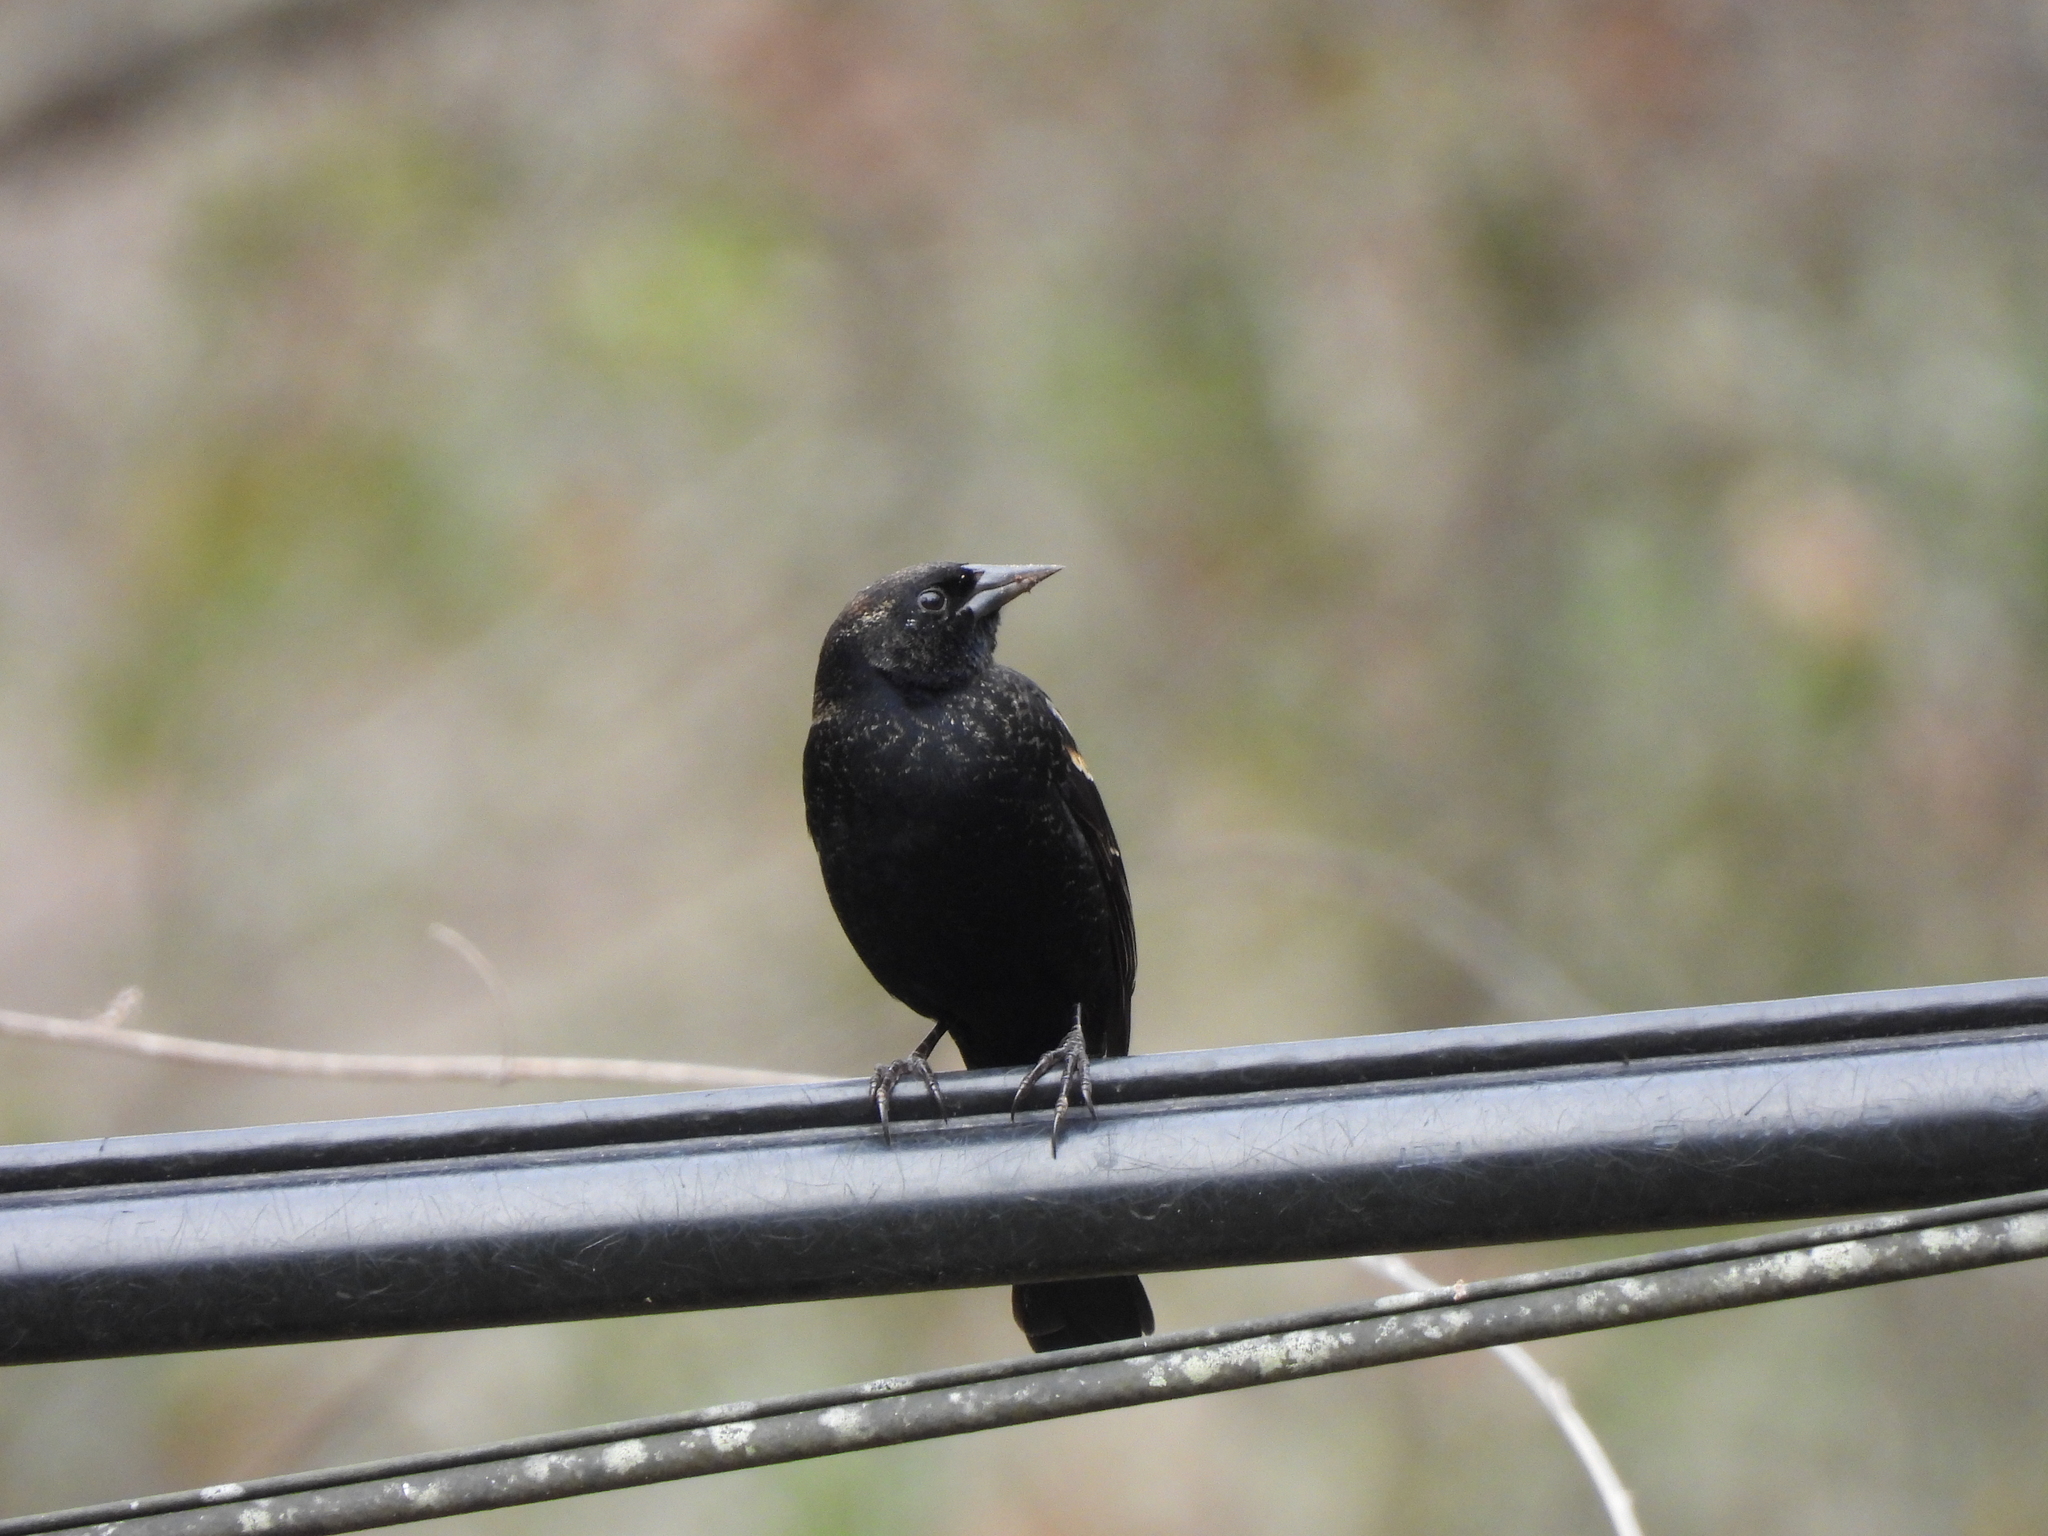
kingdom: Animalia
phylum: Chordata
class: Aves
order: Passeriformes
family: Icteridae
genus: Agelaius
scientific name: Agelaius phoeniceus
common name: Red-winged blackbird
